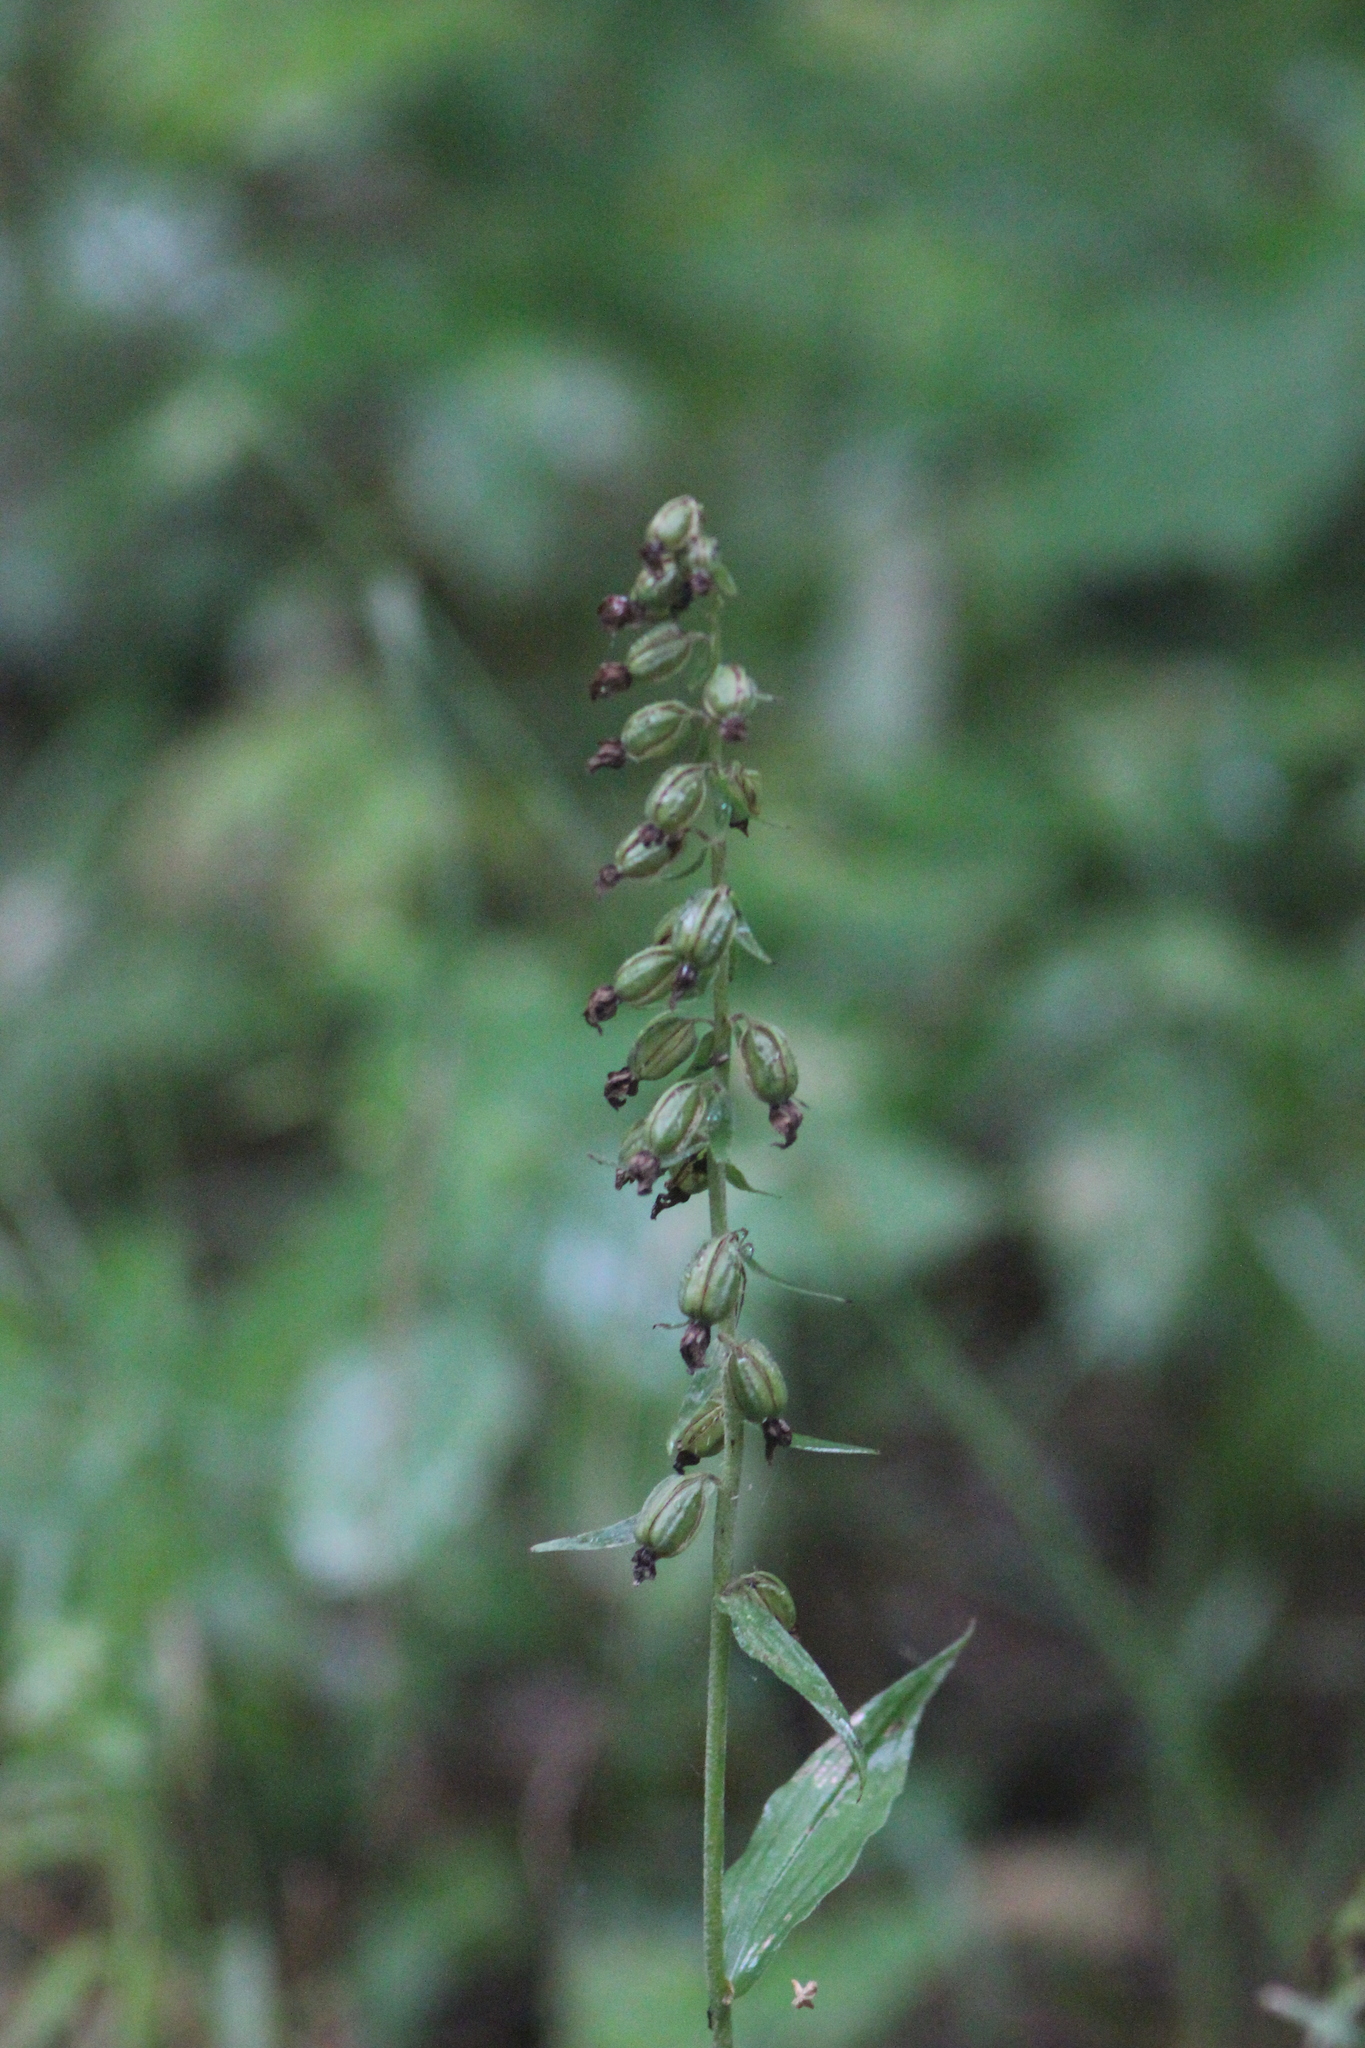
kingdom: Plantae
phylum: Tracheophyta
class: Liliopsida
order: Asparagales
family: Orchidaceae
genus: Epipactis
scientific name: Epipactis helleborine
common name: Broad-leaved helleborine
